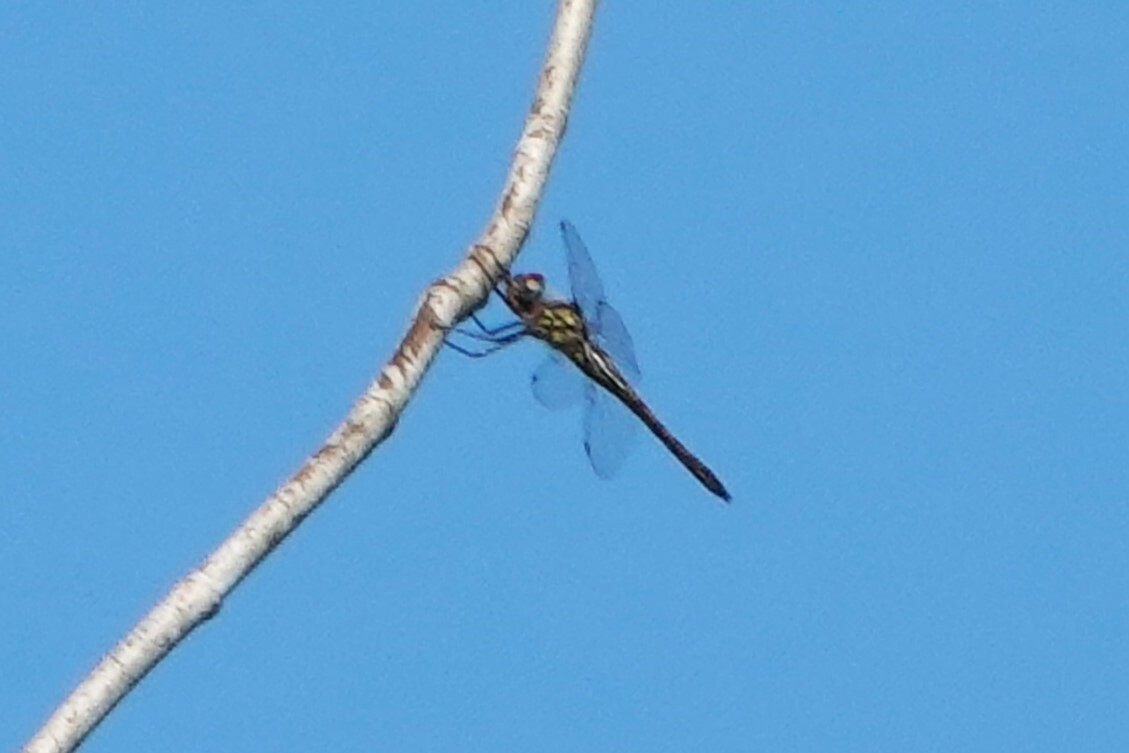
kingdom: Animalia
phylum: Arthropoda
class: Insecta
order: Odonata
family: Corduliidae
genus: Epitheca
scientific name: Epitheca sepia
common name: Sepia baskettail
